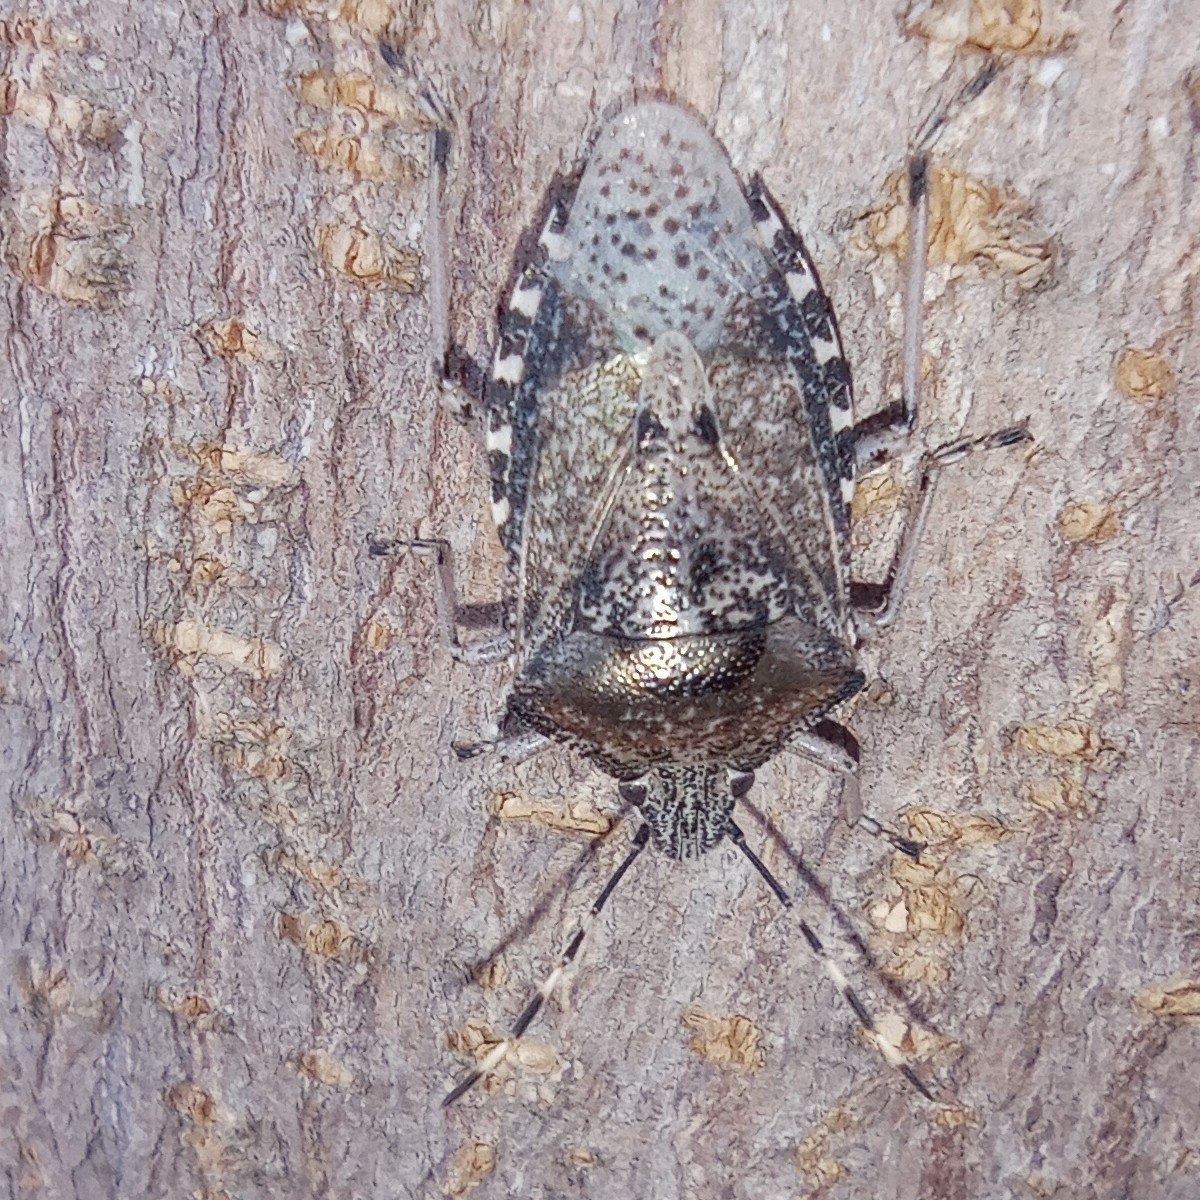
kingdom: Animalia
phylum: Arthropoda
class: Insecta
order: Hemiptera
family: Pentatomidae
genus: Rhaphigaster
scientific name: Rhaphigaster nebulosa
